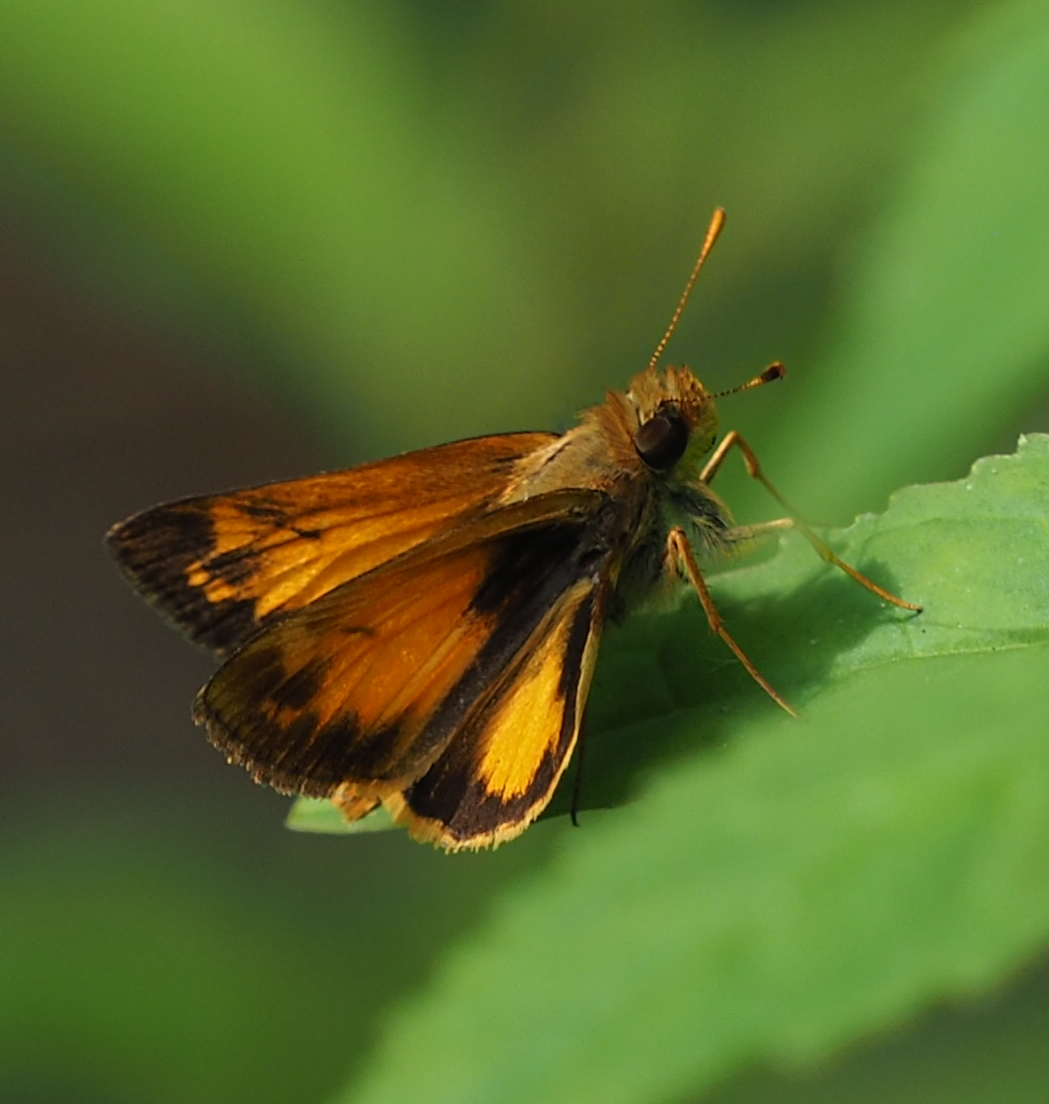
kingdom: Animalia
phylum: Arthropoda
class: Insecta
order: Lepidoptera
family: Hesperiidae
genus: Lon
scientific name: Lon zabulon
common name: Zabulon skipper
